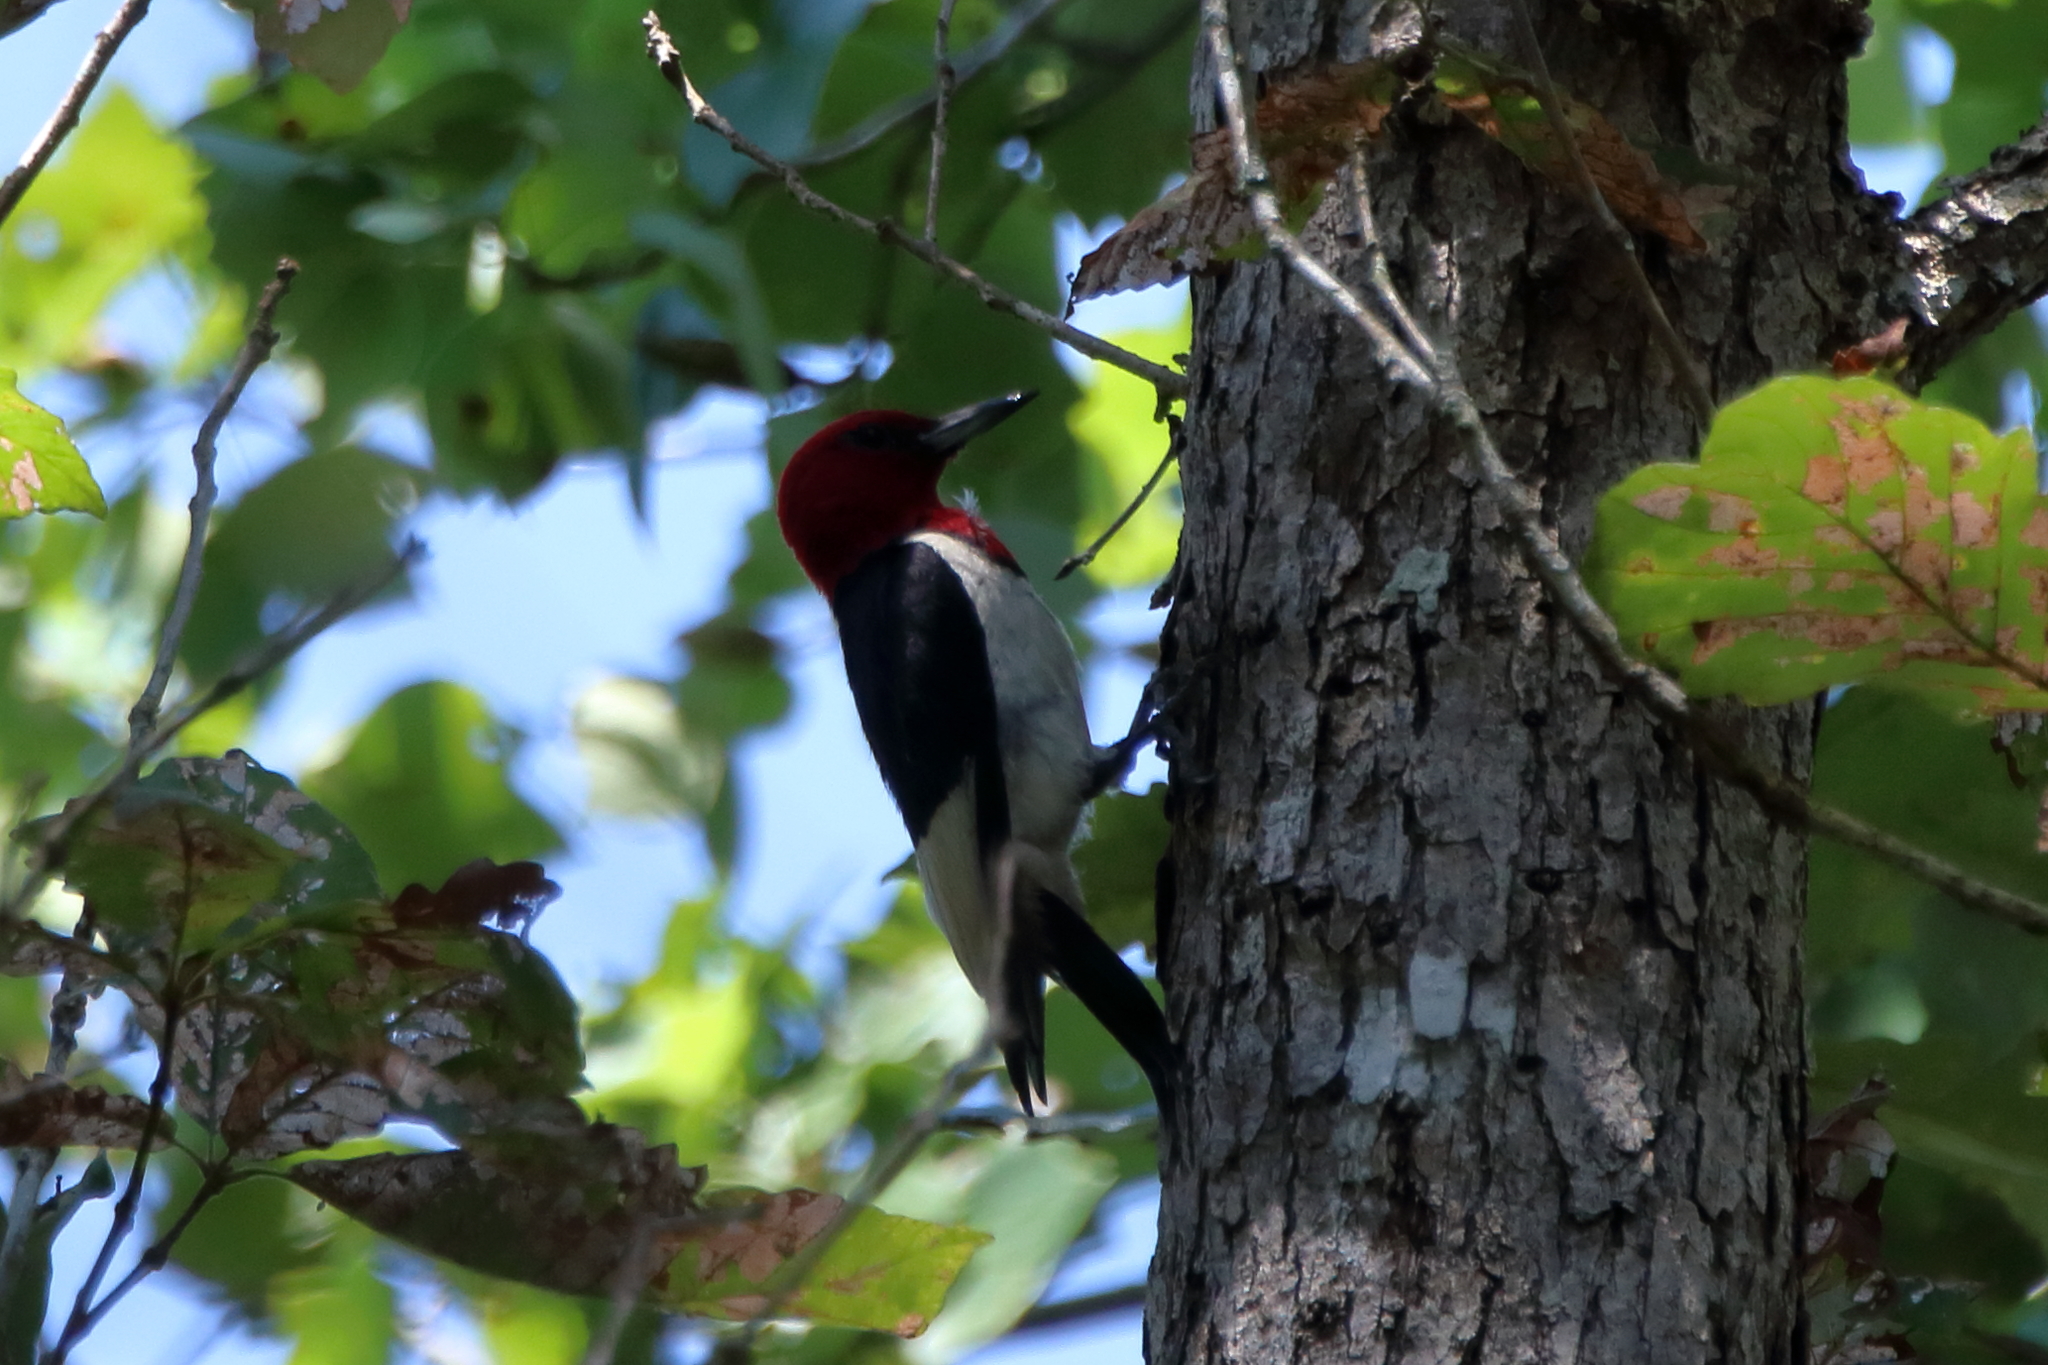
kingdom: Animalia
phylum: Chordata
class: Aves
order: Piciformes
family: Picidae
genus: Melanerpes
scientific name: Melanerpes erythrocephalus
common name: Red-headed woodpecker
